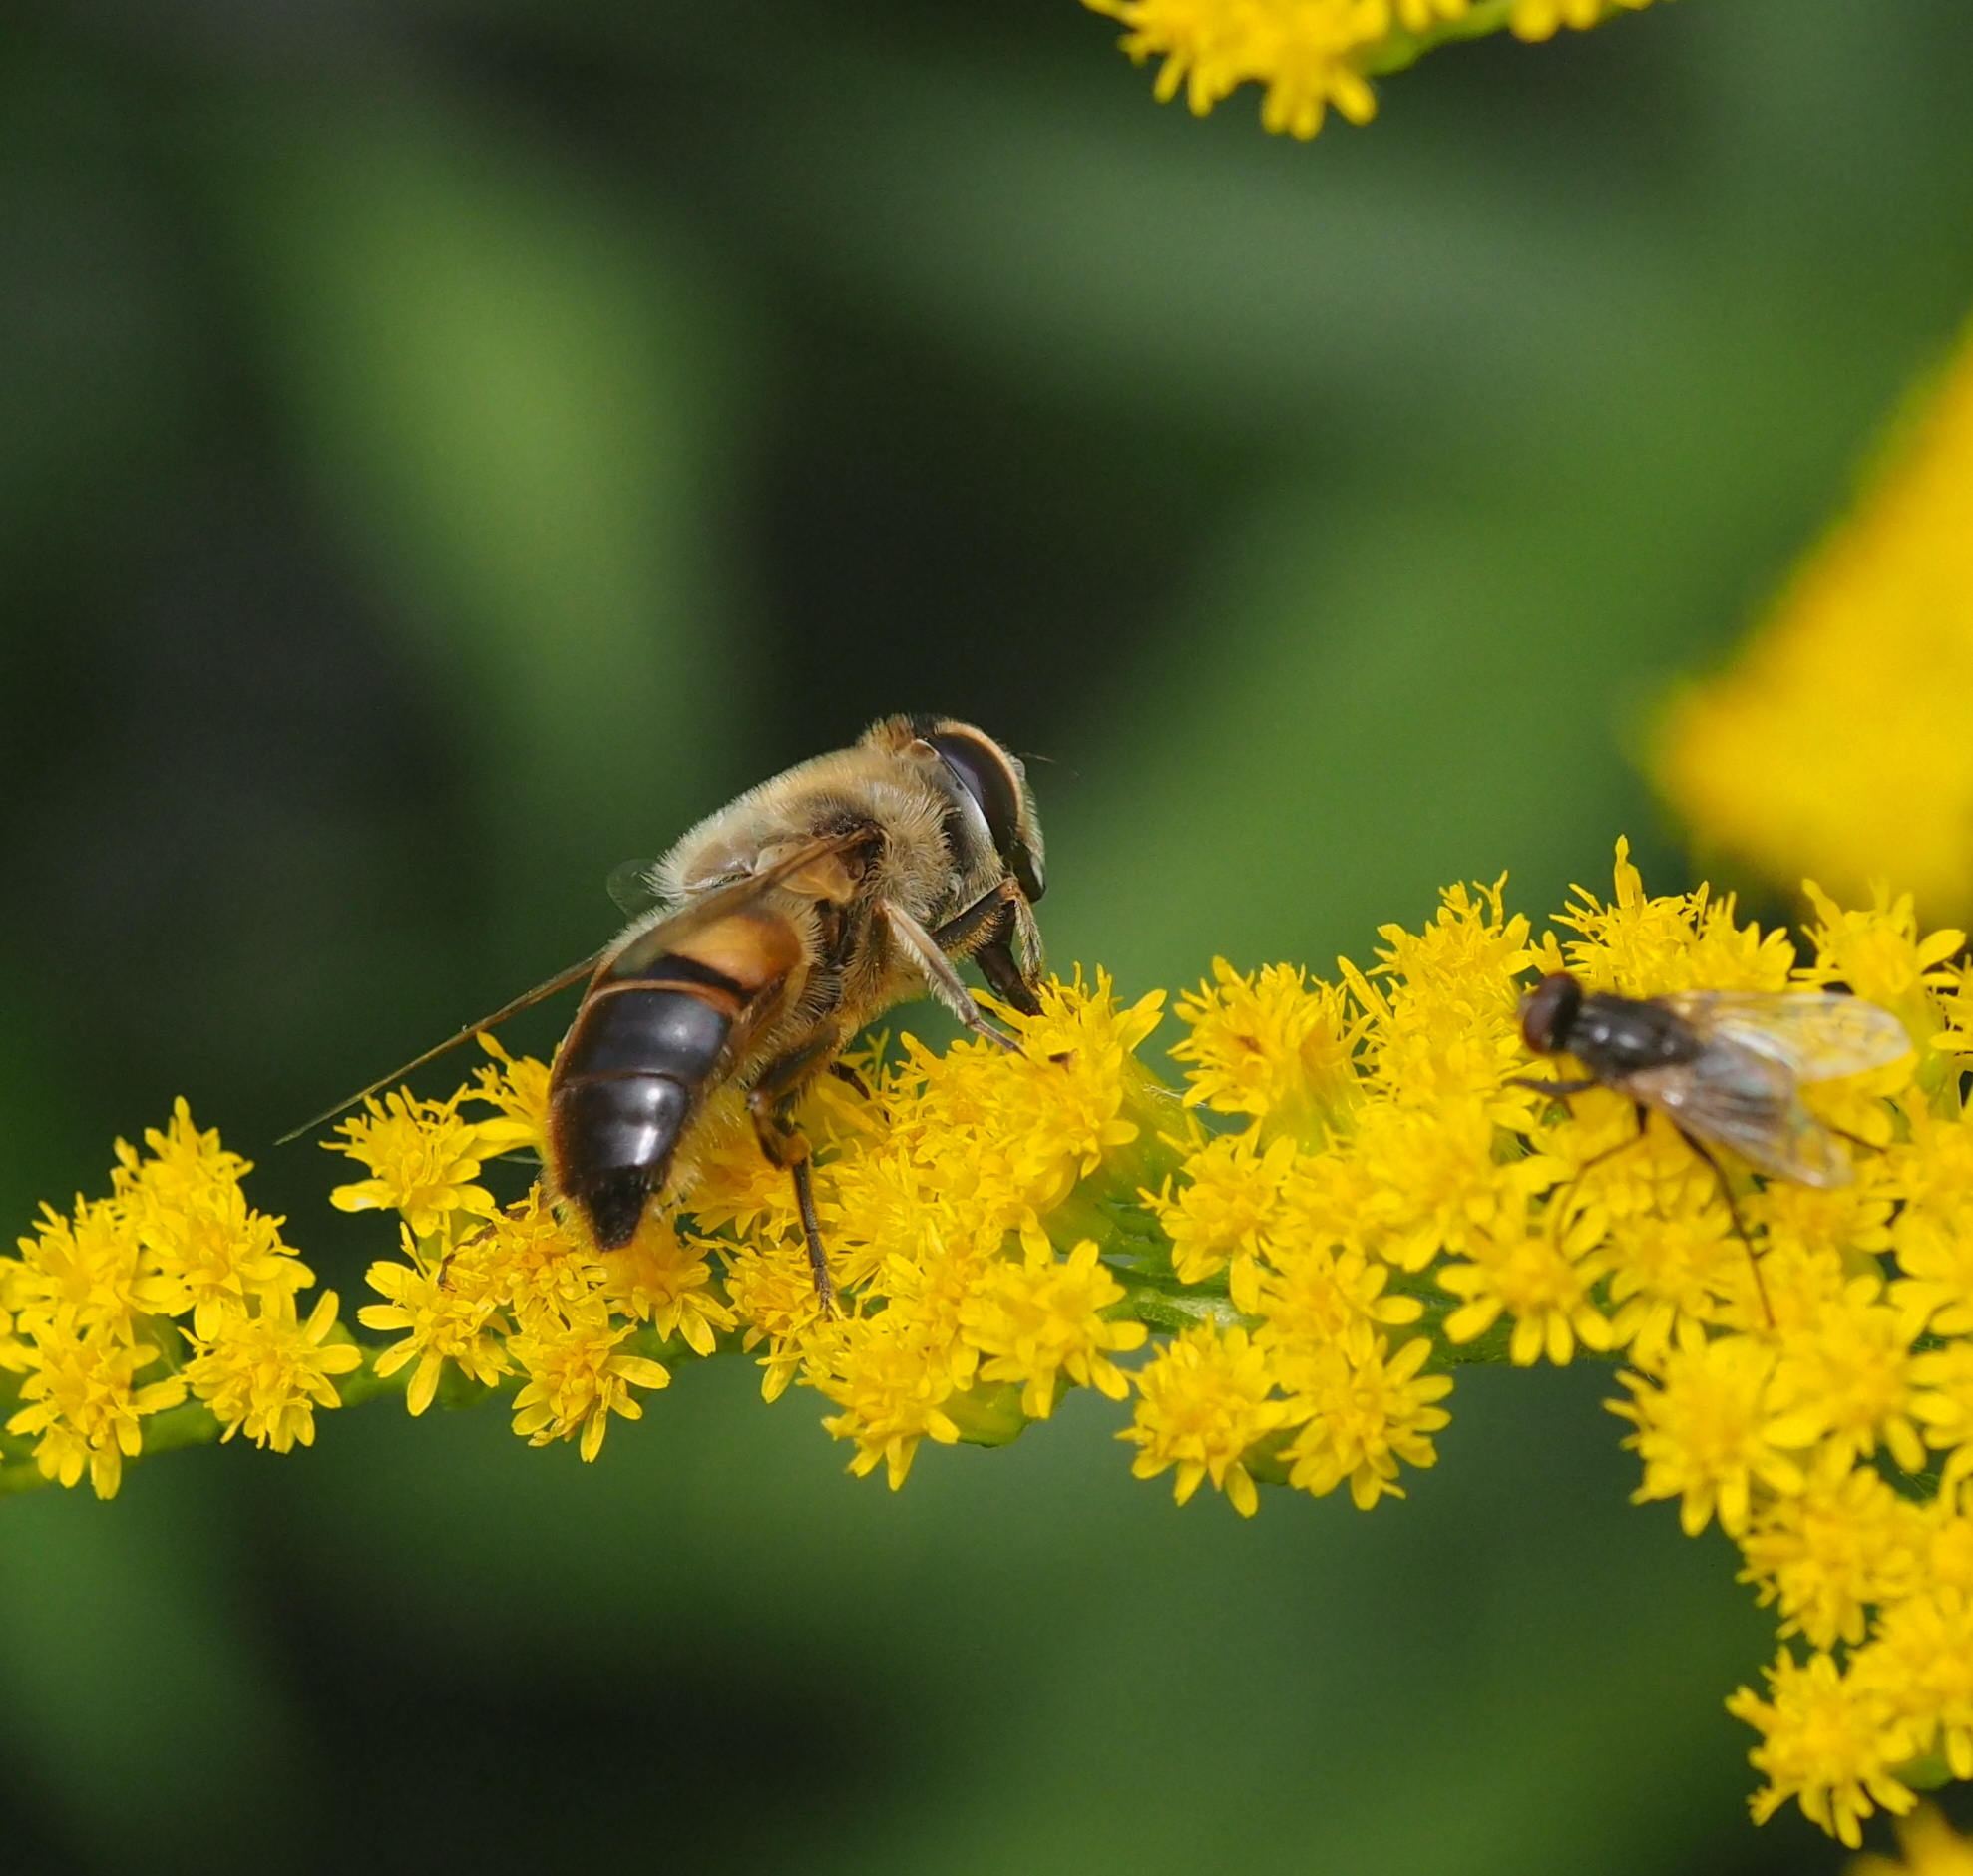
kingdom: Animalia
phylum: Arthropoda
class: Insecta
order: Diptera
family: Syrphidae
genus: Eristalis
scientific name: Eristalis tenax
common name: Drone fly
